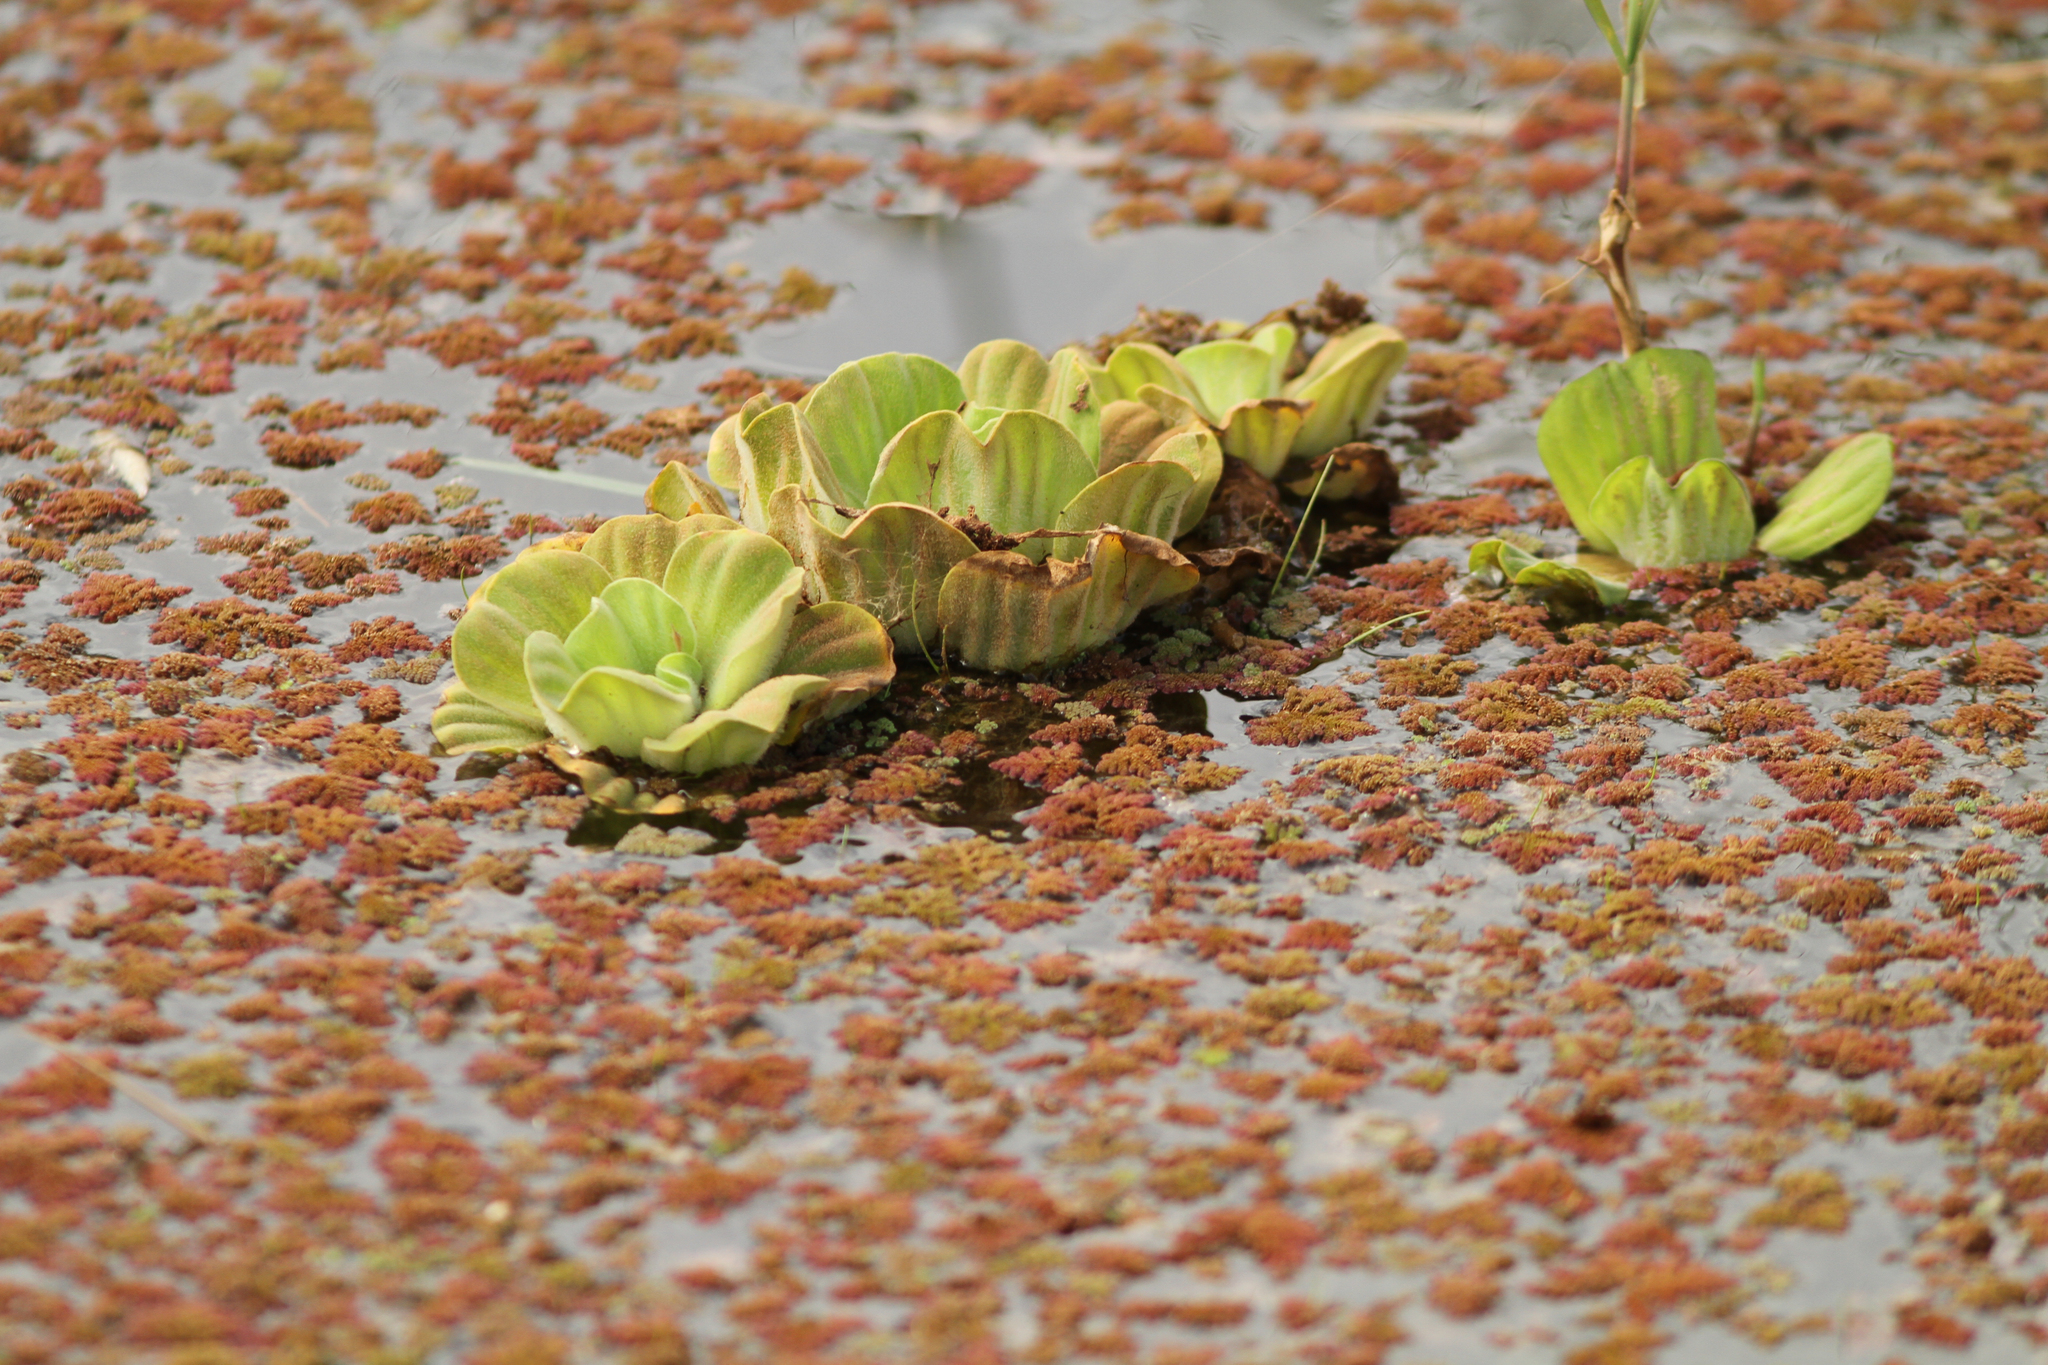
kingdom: Plantae
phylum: Tracheophyta
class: Liliopsida
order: Alismatales
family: Araceae
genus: Pistia
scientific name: Pistia stratiotes
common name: Water lettuce
